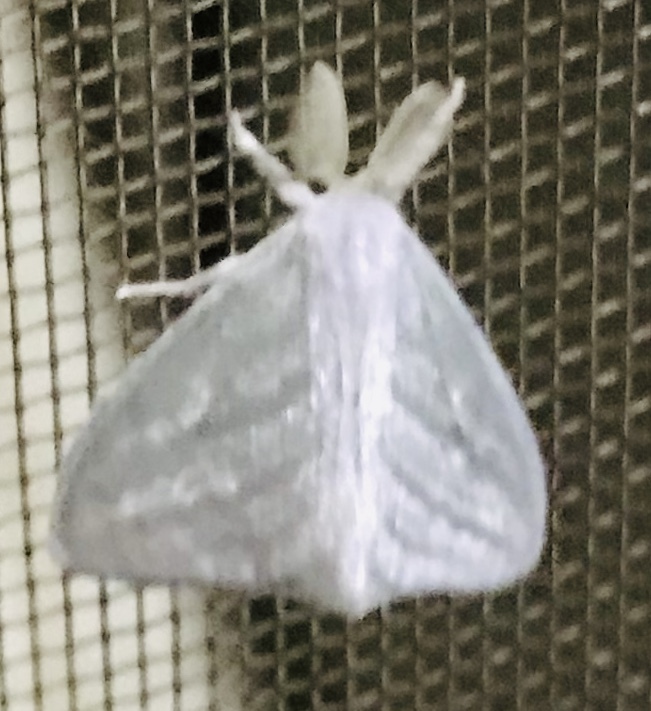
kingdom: Animalia
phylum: Arthropoda
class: Insecta
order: Lepidoptera
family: Erebidae
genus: Caviria
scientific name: Caviria regina
